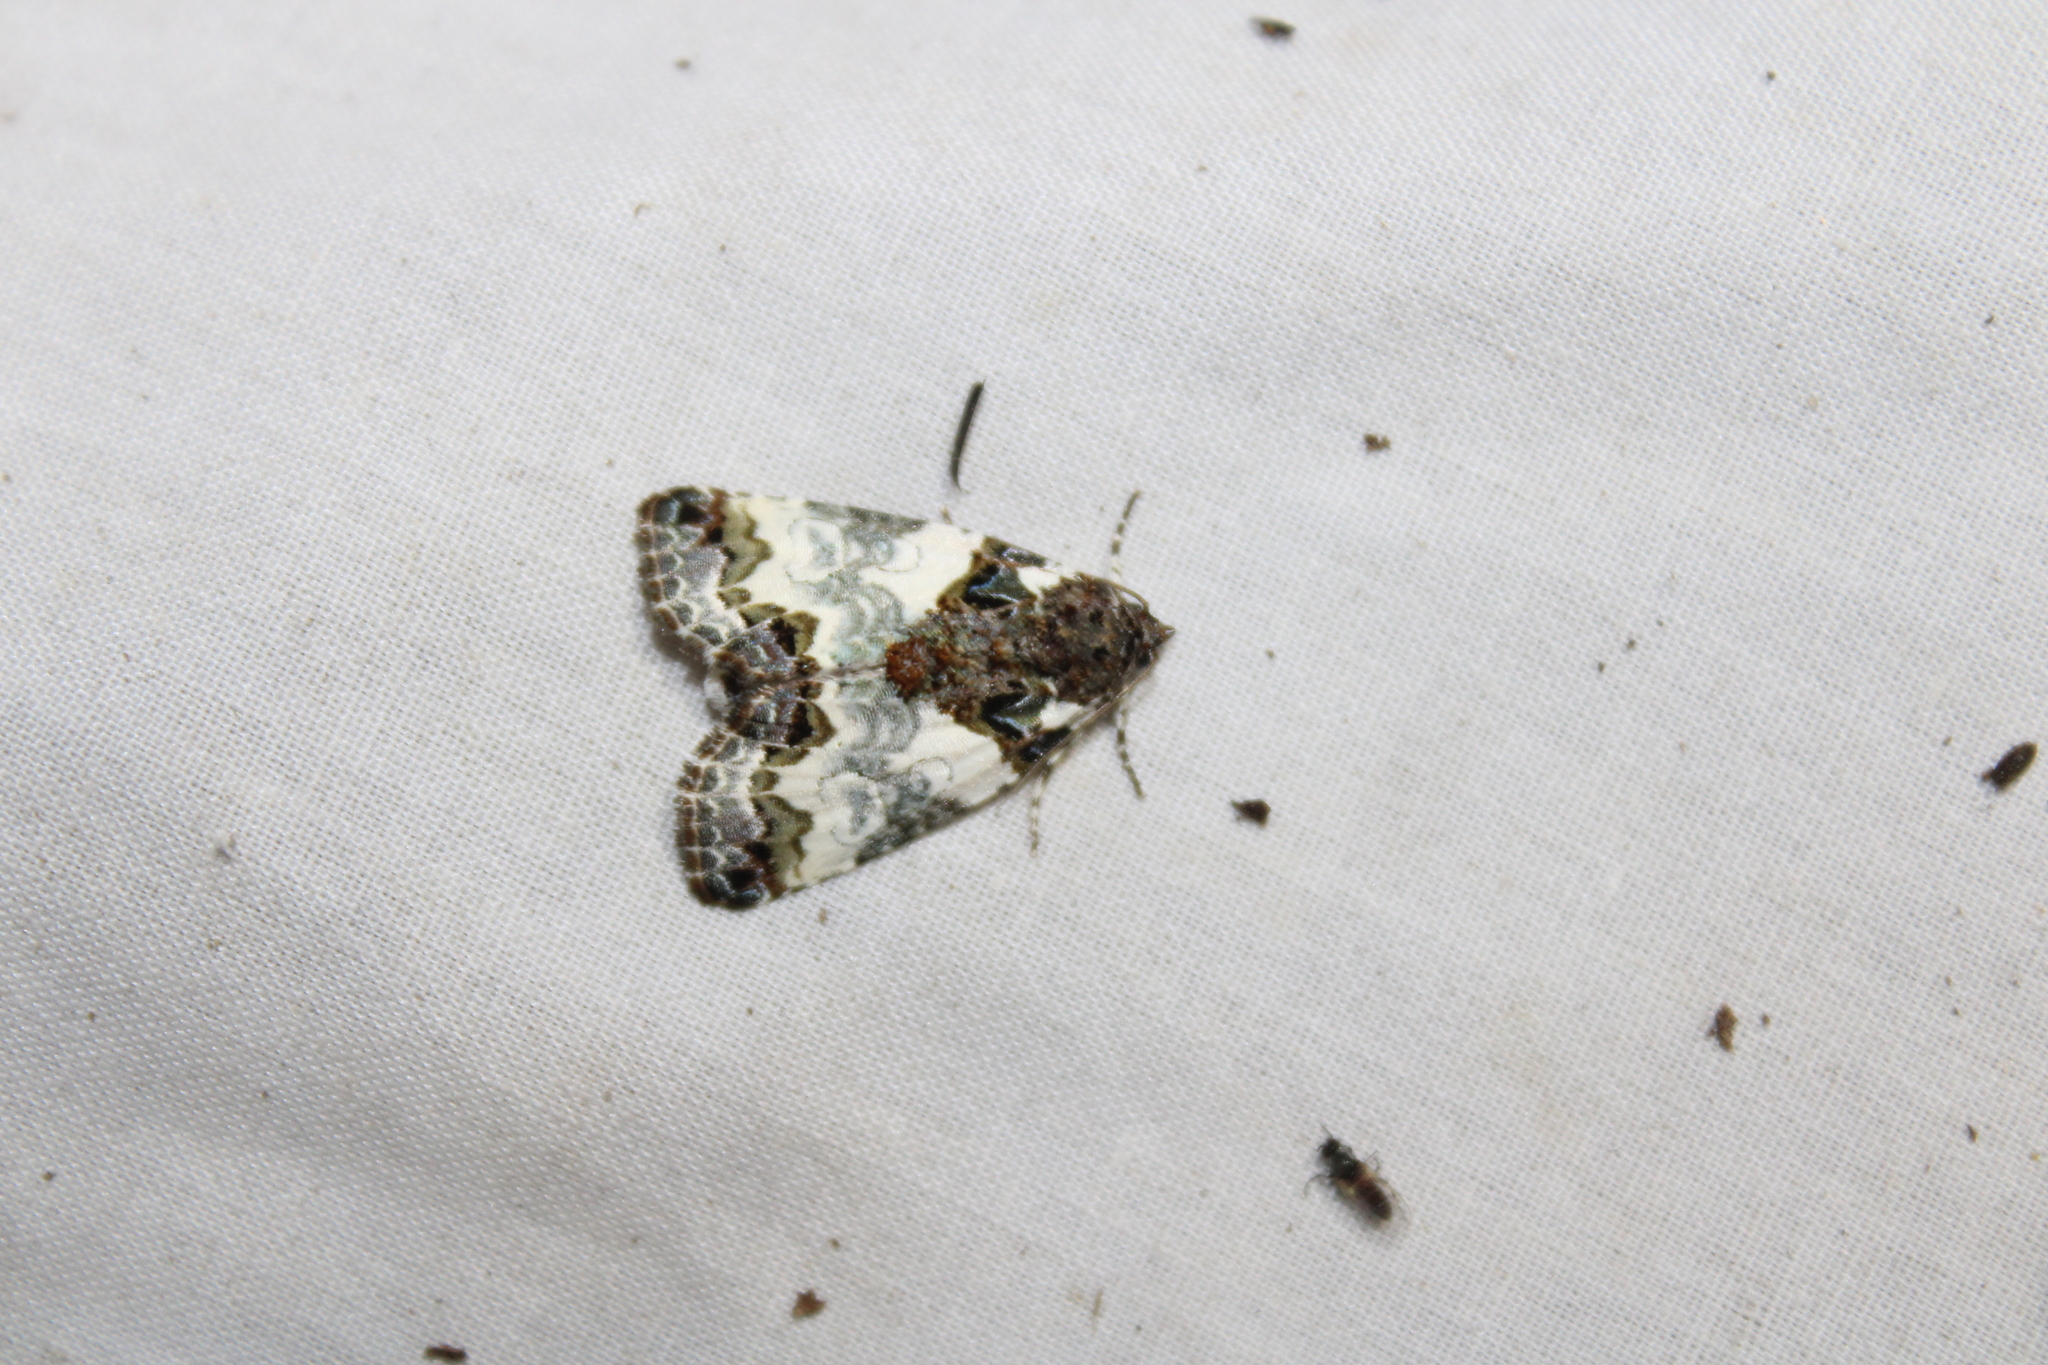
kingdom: Animalia
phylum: Arthropoda
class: Insecta
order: Lepidoptera
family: Noctuidae
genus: Cerma
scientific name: Cerma cerintha
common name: Tufted bird-dropping moth
